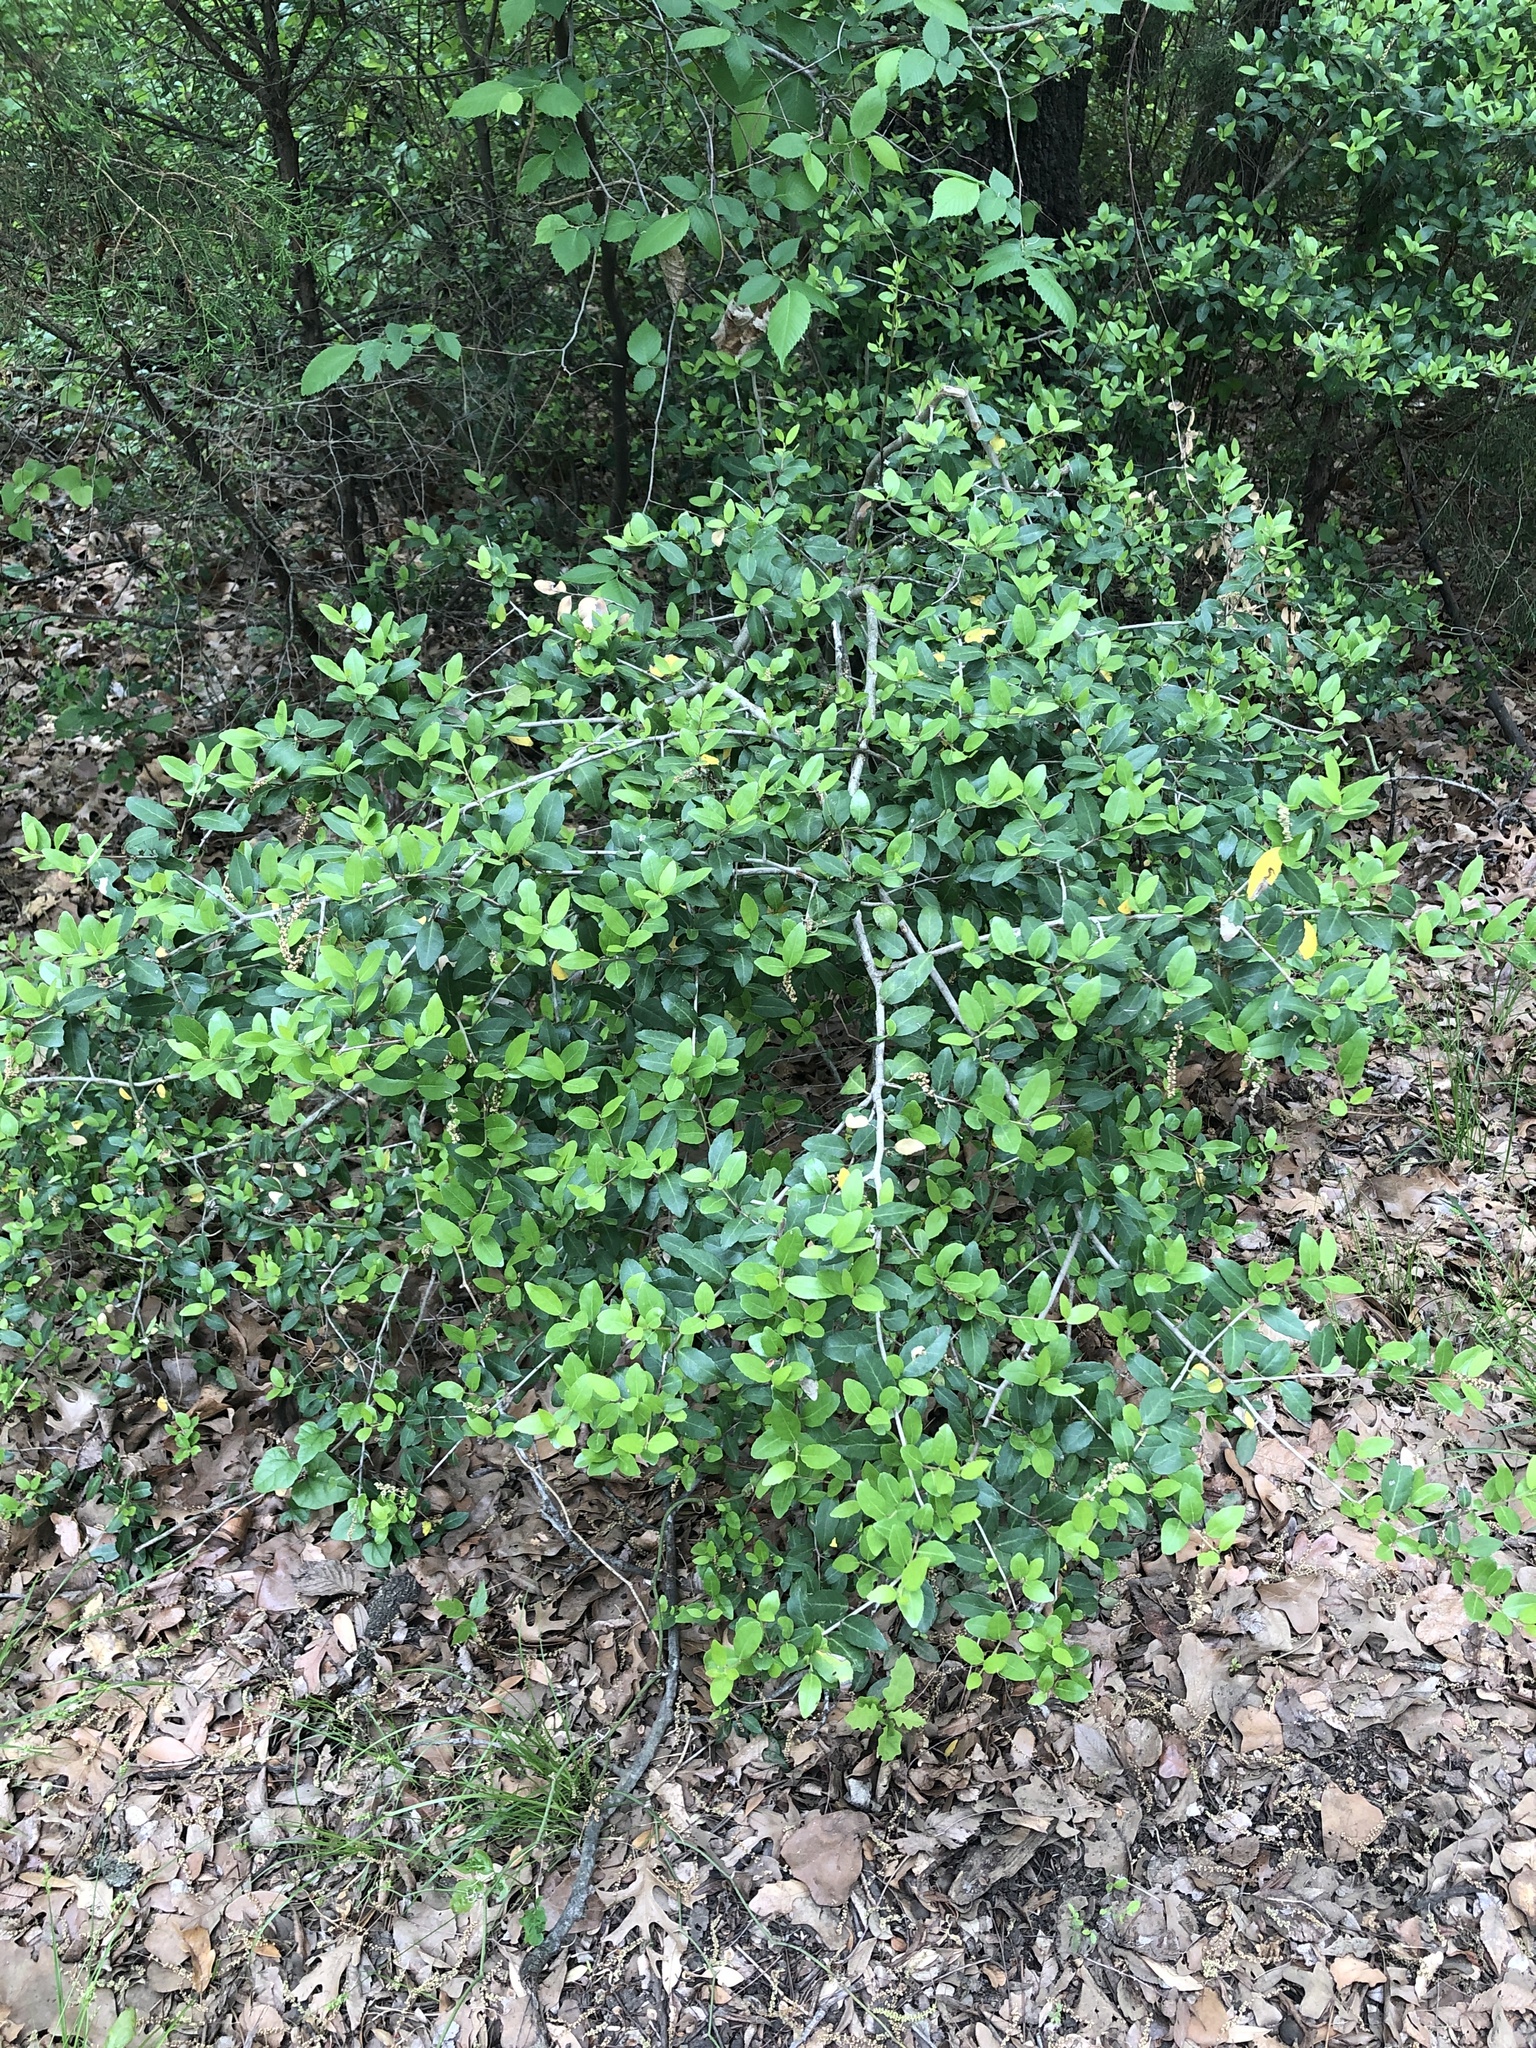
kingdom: Plantae
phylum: Tracheophyta
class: Magnoliopsida
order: Aquifoliales
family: Aquifoliaceae
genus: Ilex
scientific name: Ilex vomitoria
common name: Yaupon holly
